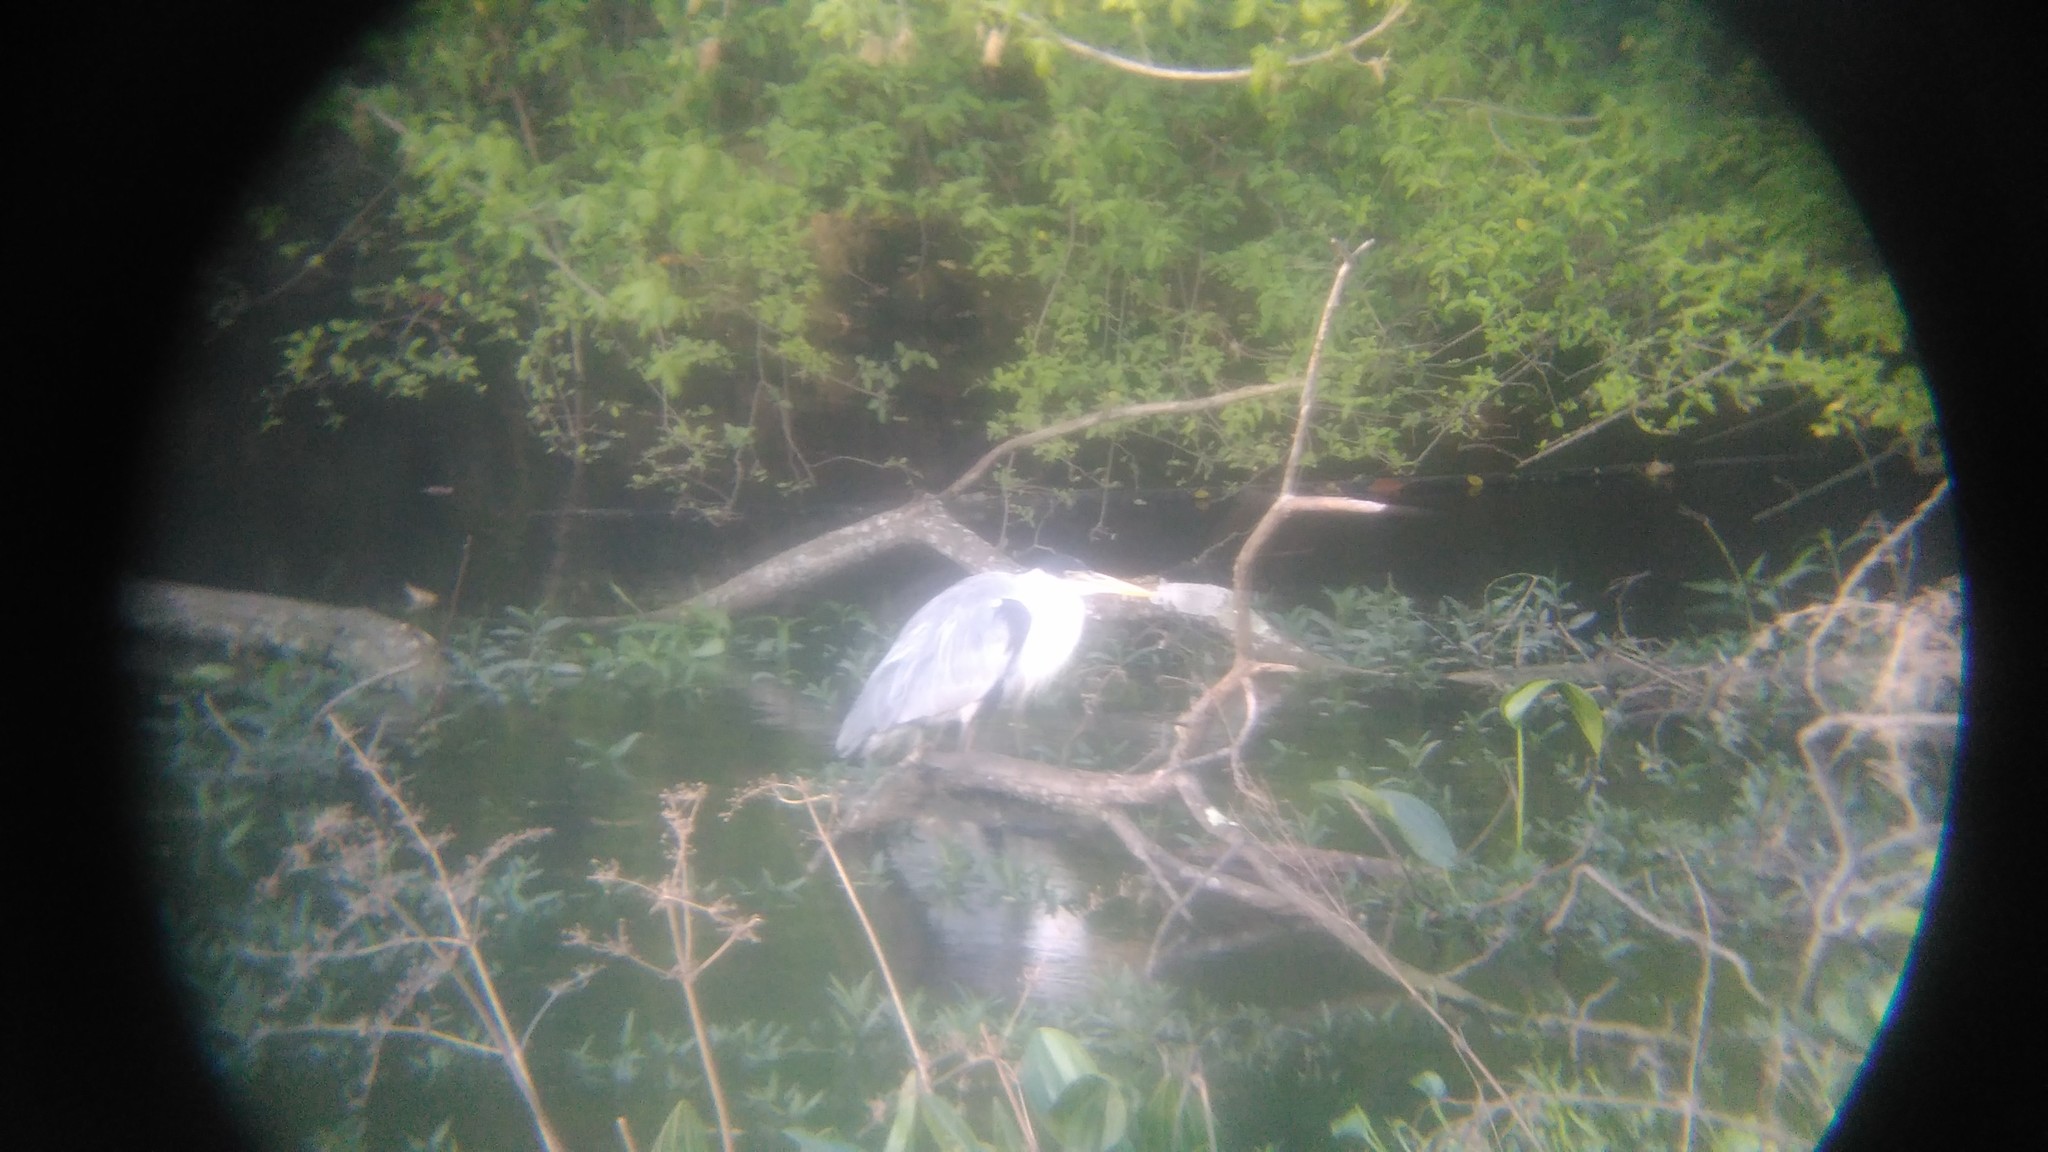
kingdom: Animalia
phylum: Chordata
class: Aves
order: Pelecaniformes
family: Ardeidae
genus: Ardea
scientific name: Ardea cocoi
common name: Cocoi heron
